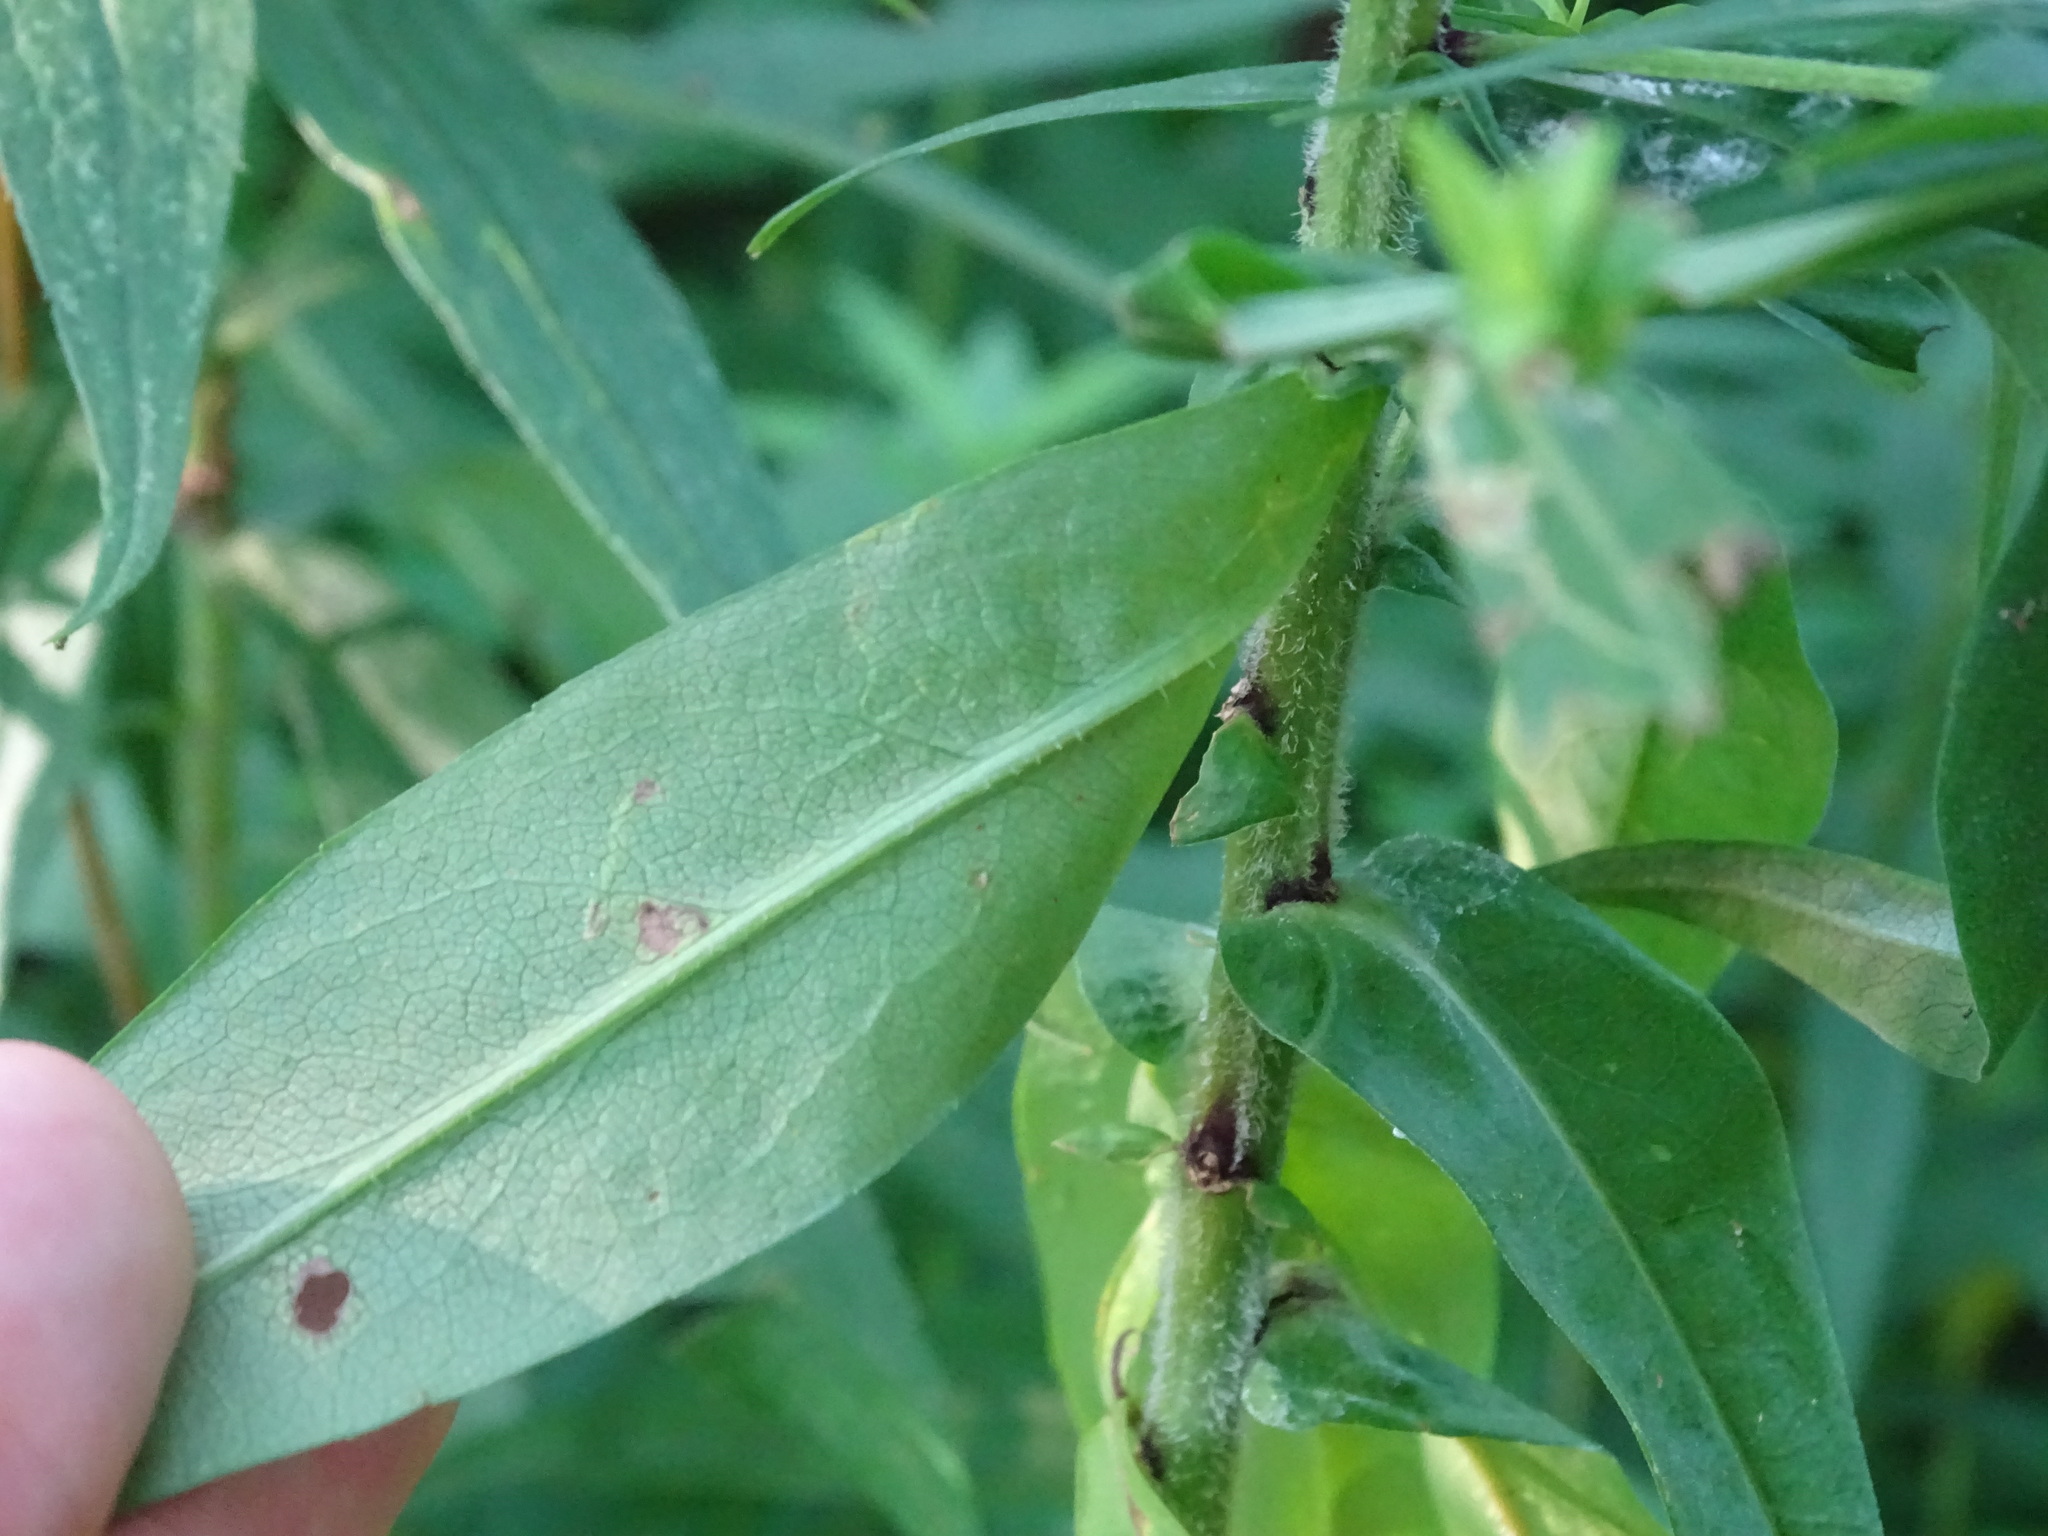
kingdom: Plantae
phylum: Tracheophyta
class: Magnoliopsida
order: Asterales
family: Asteraceae
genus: Symphyotrichum
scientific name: Symphyotrichum firmum
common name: Shining aster
